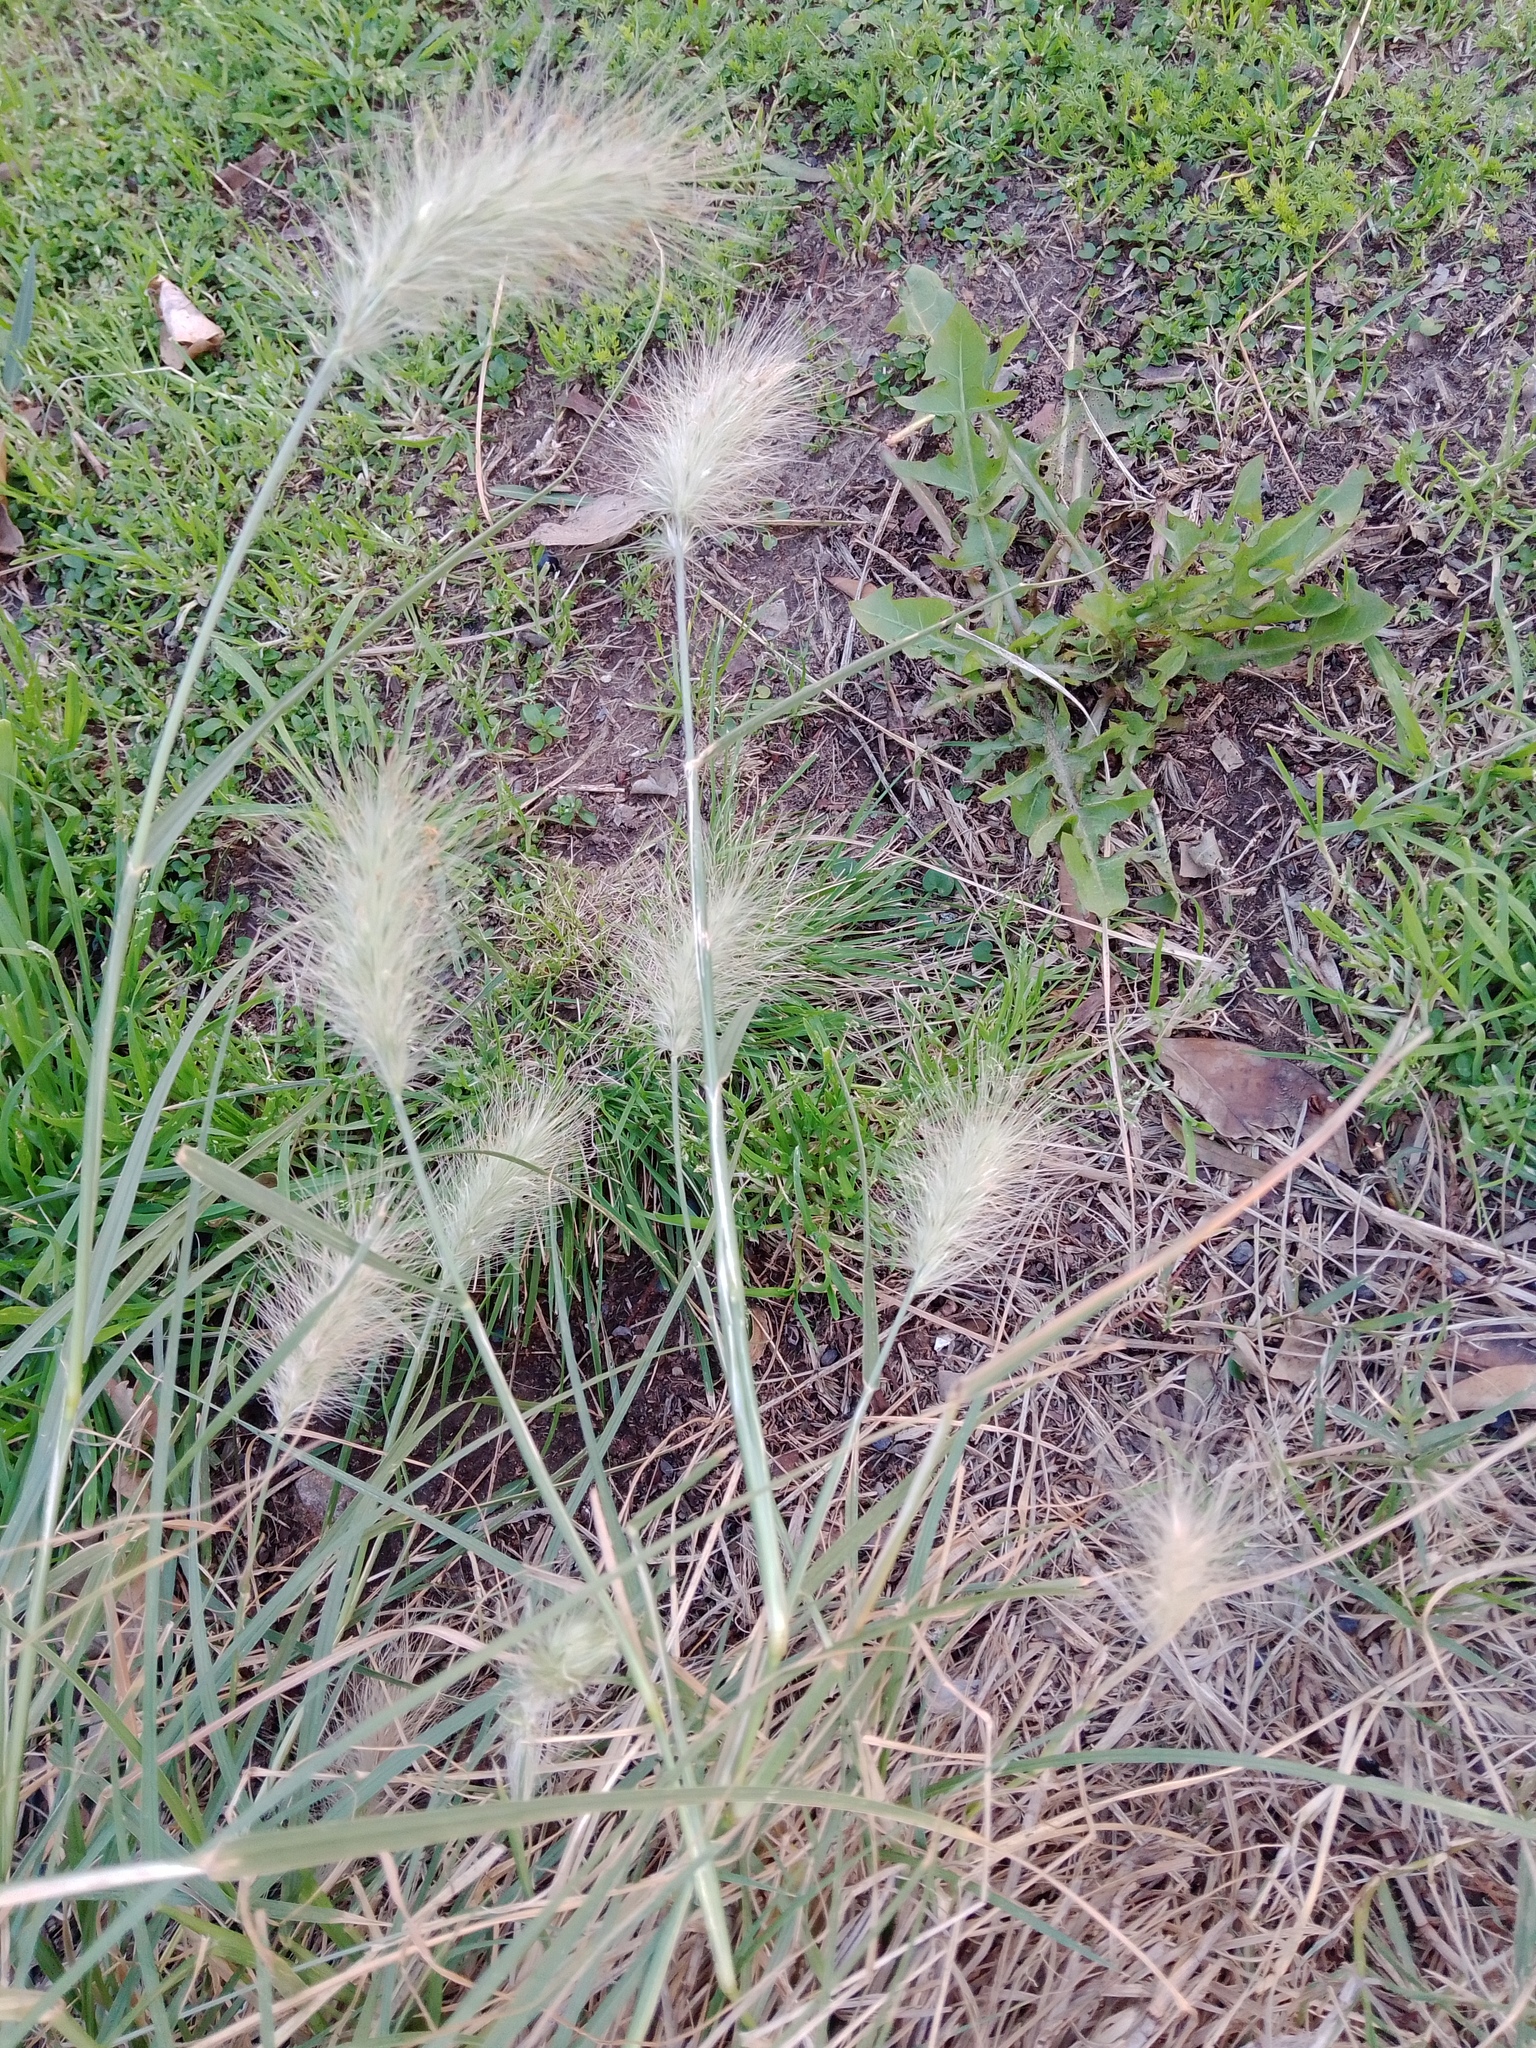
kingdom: Plantae
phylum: Tracheophyta
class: Liliopsida
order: Poales
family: Poaceae
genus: Cenchrus
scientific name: Cenchrus longisetus
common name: Feathertop
